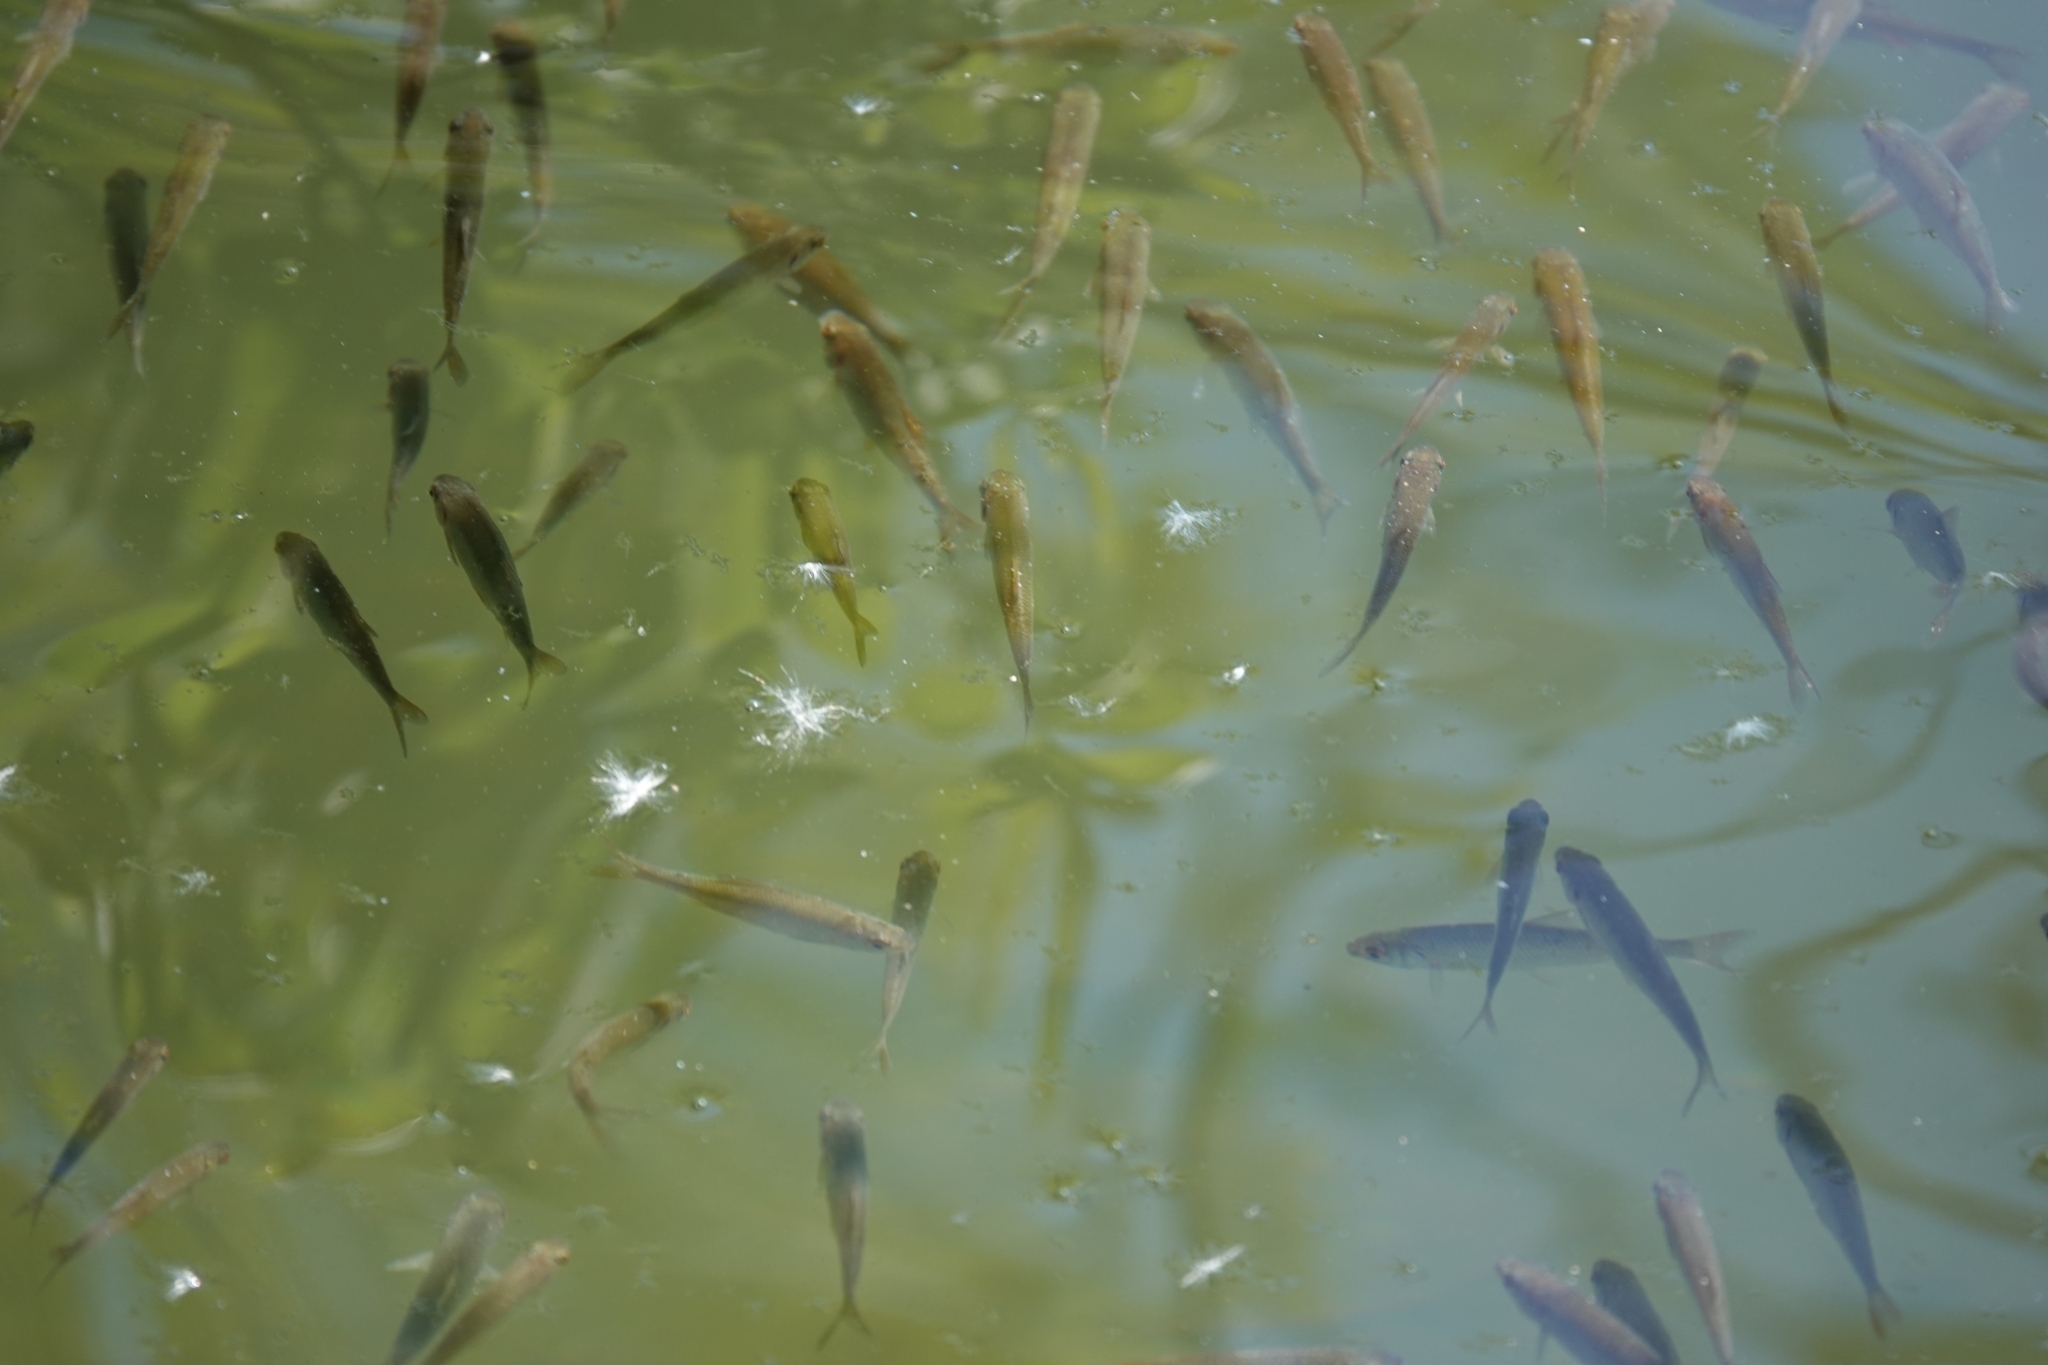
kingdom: Animalia
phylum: Chordata
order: Cypriniformes
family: Cyprinidae
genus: Rutilus
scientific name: Rutilus rutilus
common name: Roach
